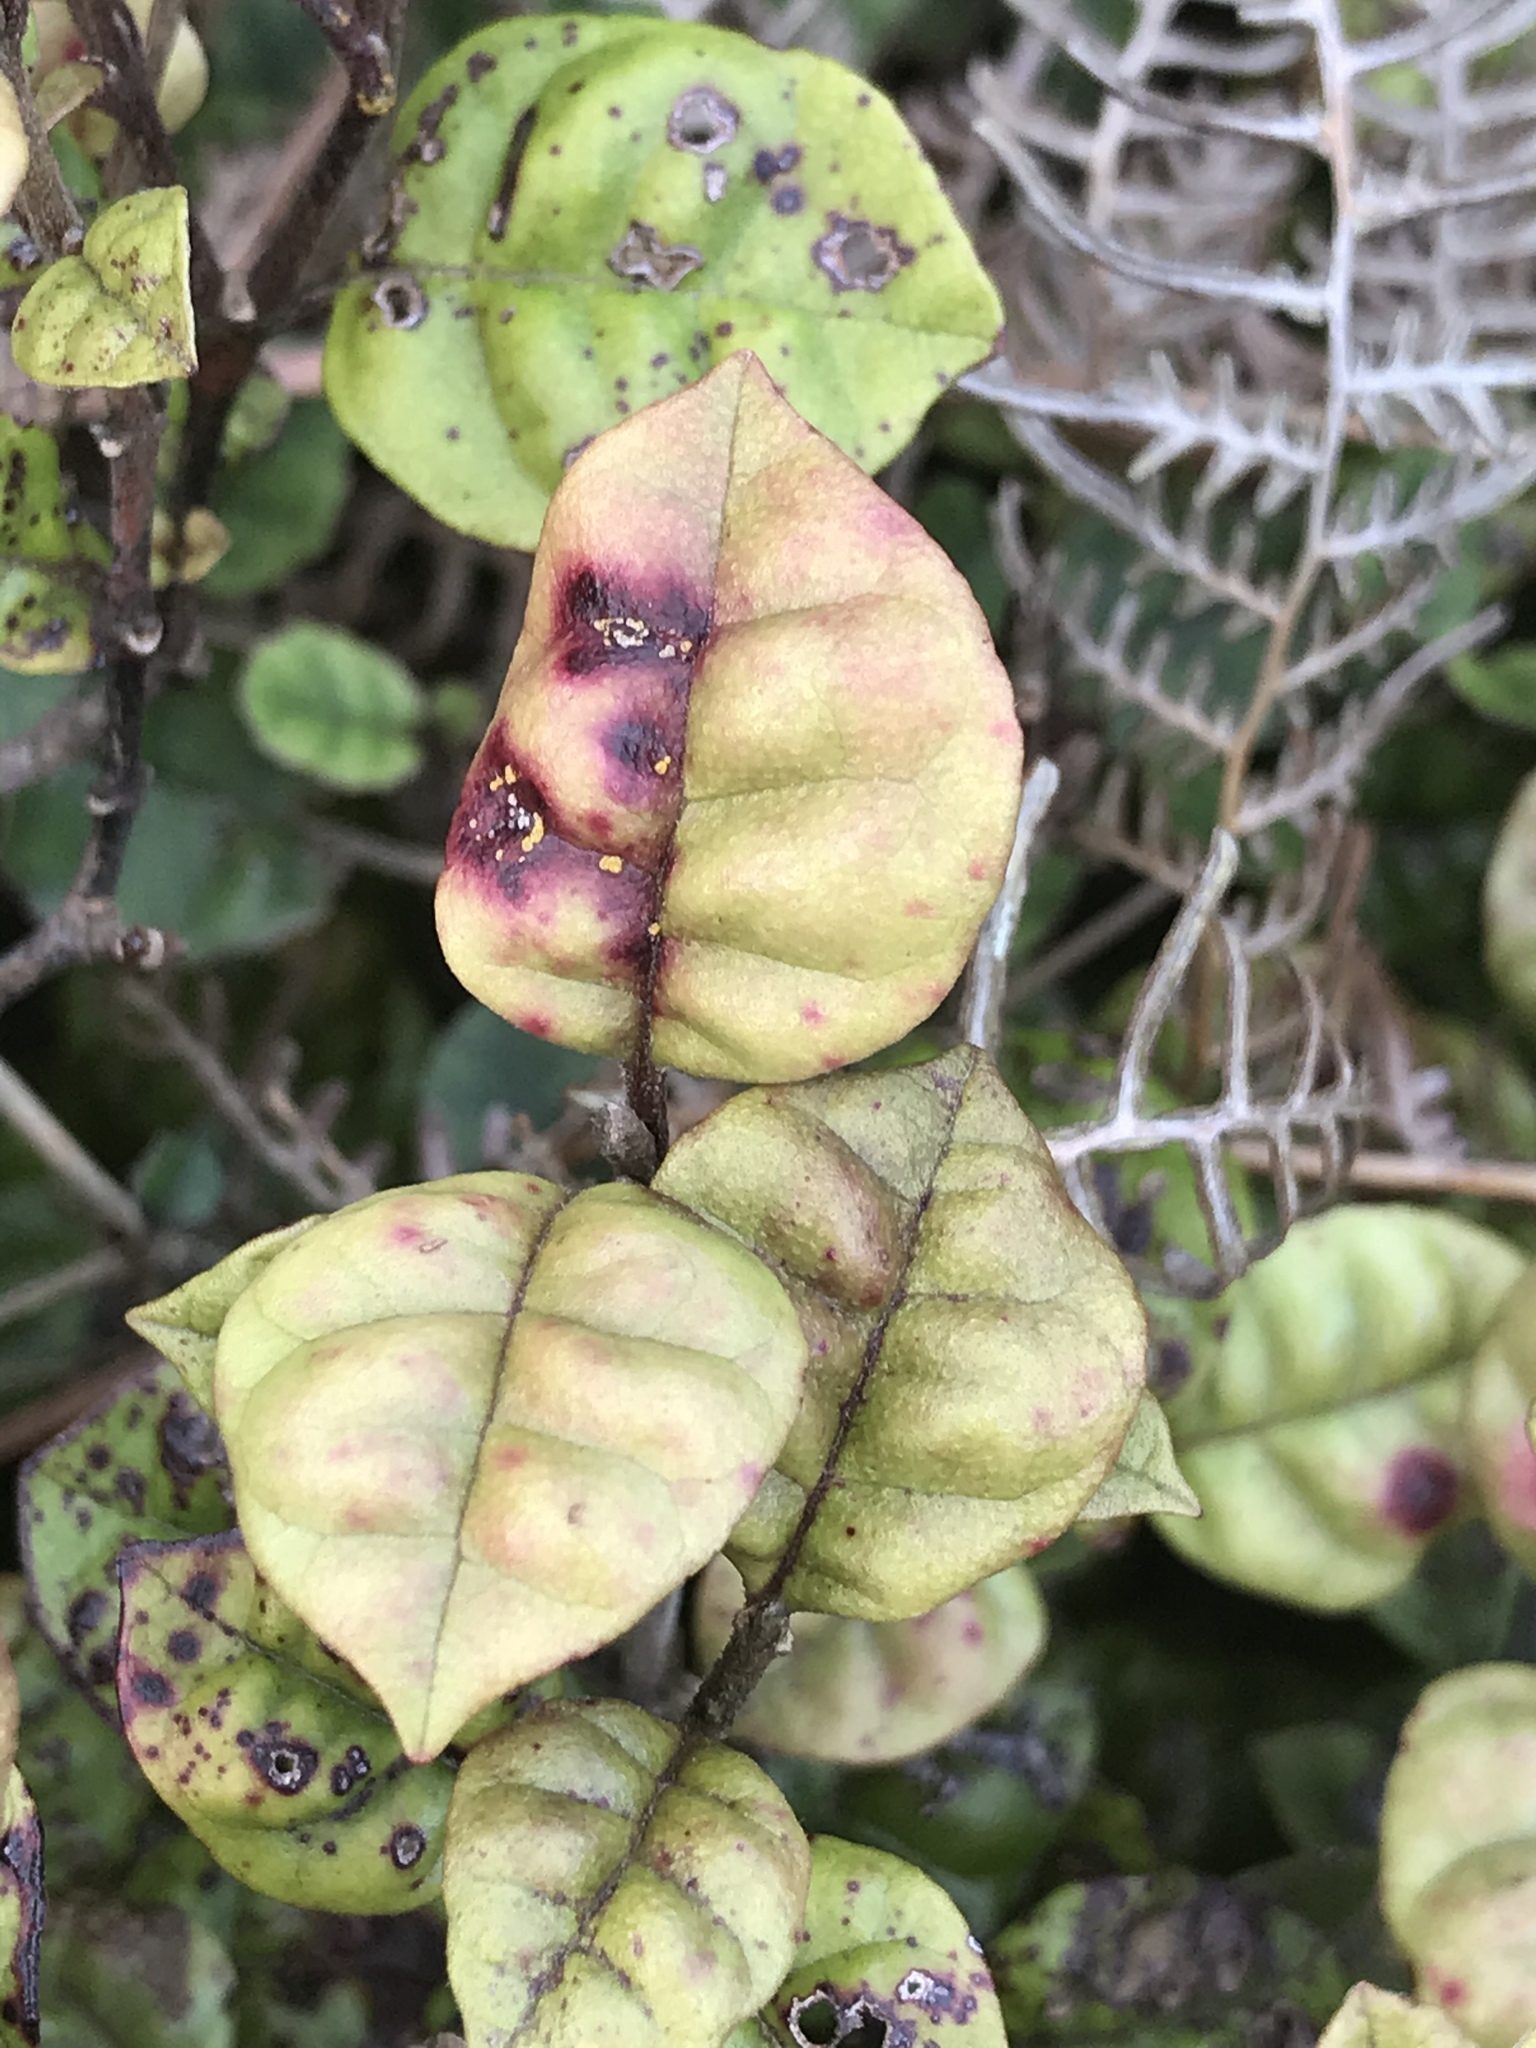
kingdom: Fungi
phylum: Basidiomycota
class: Pucciniomycetes
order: Pucciniales
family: Sphaerophragmiaceae
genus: Austropuccinia
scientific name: Austropuccinia psidii
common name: Myrtle rust
